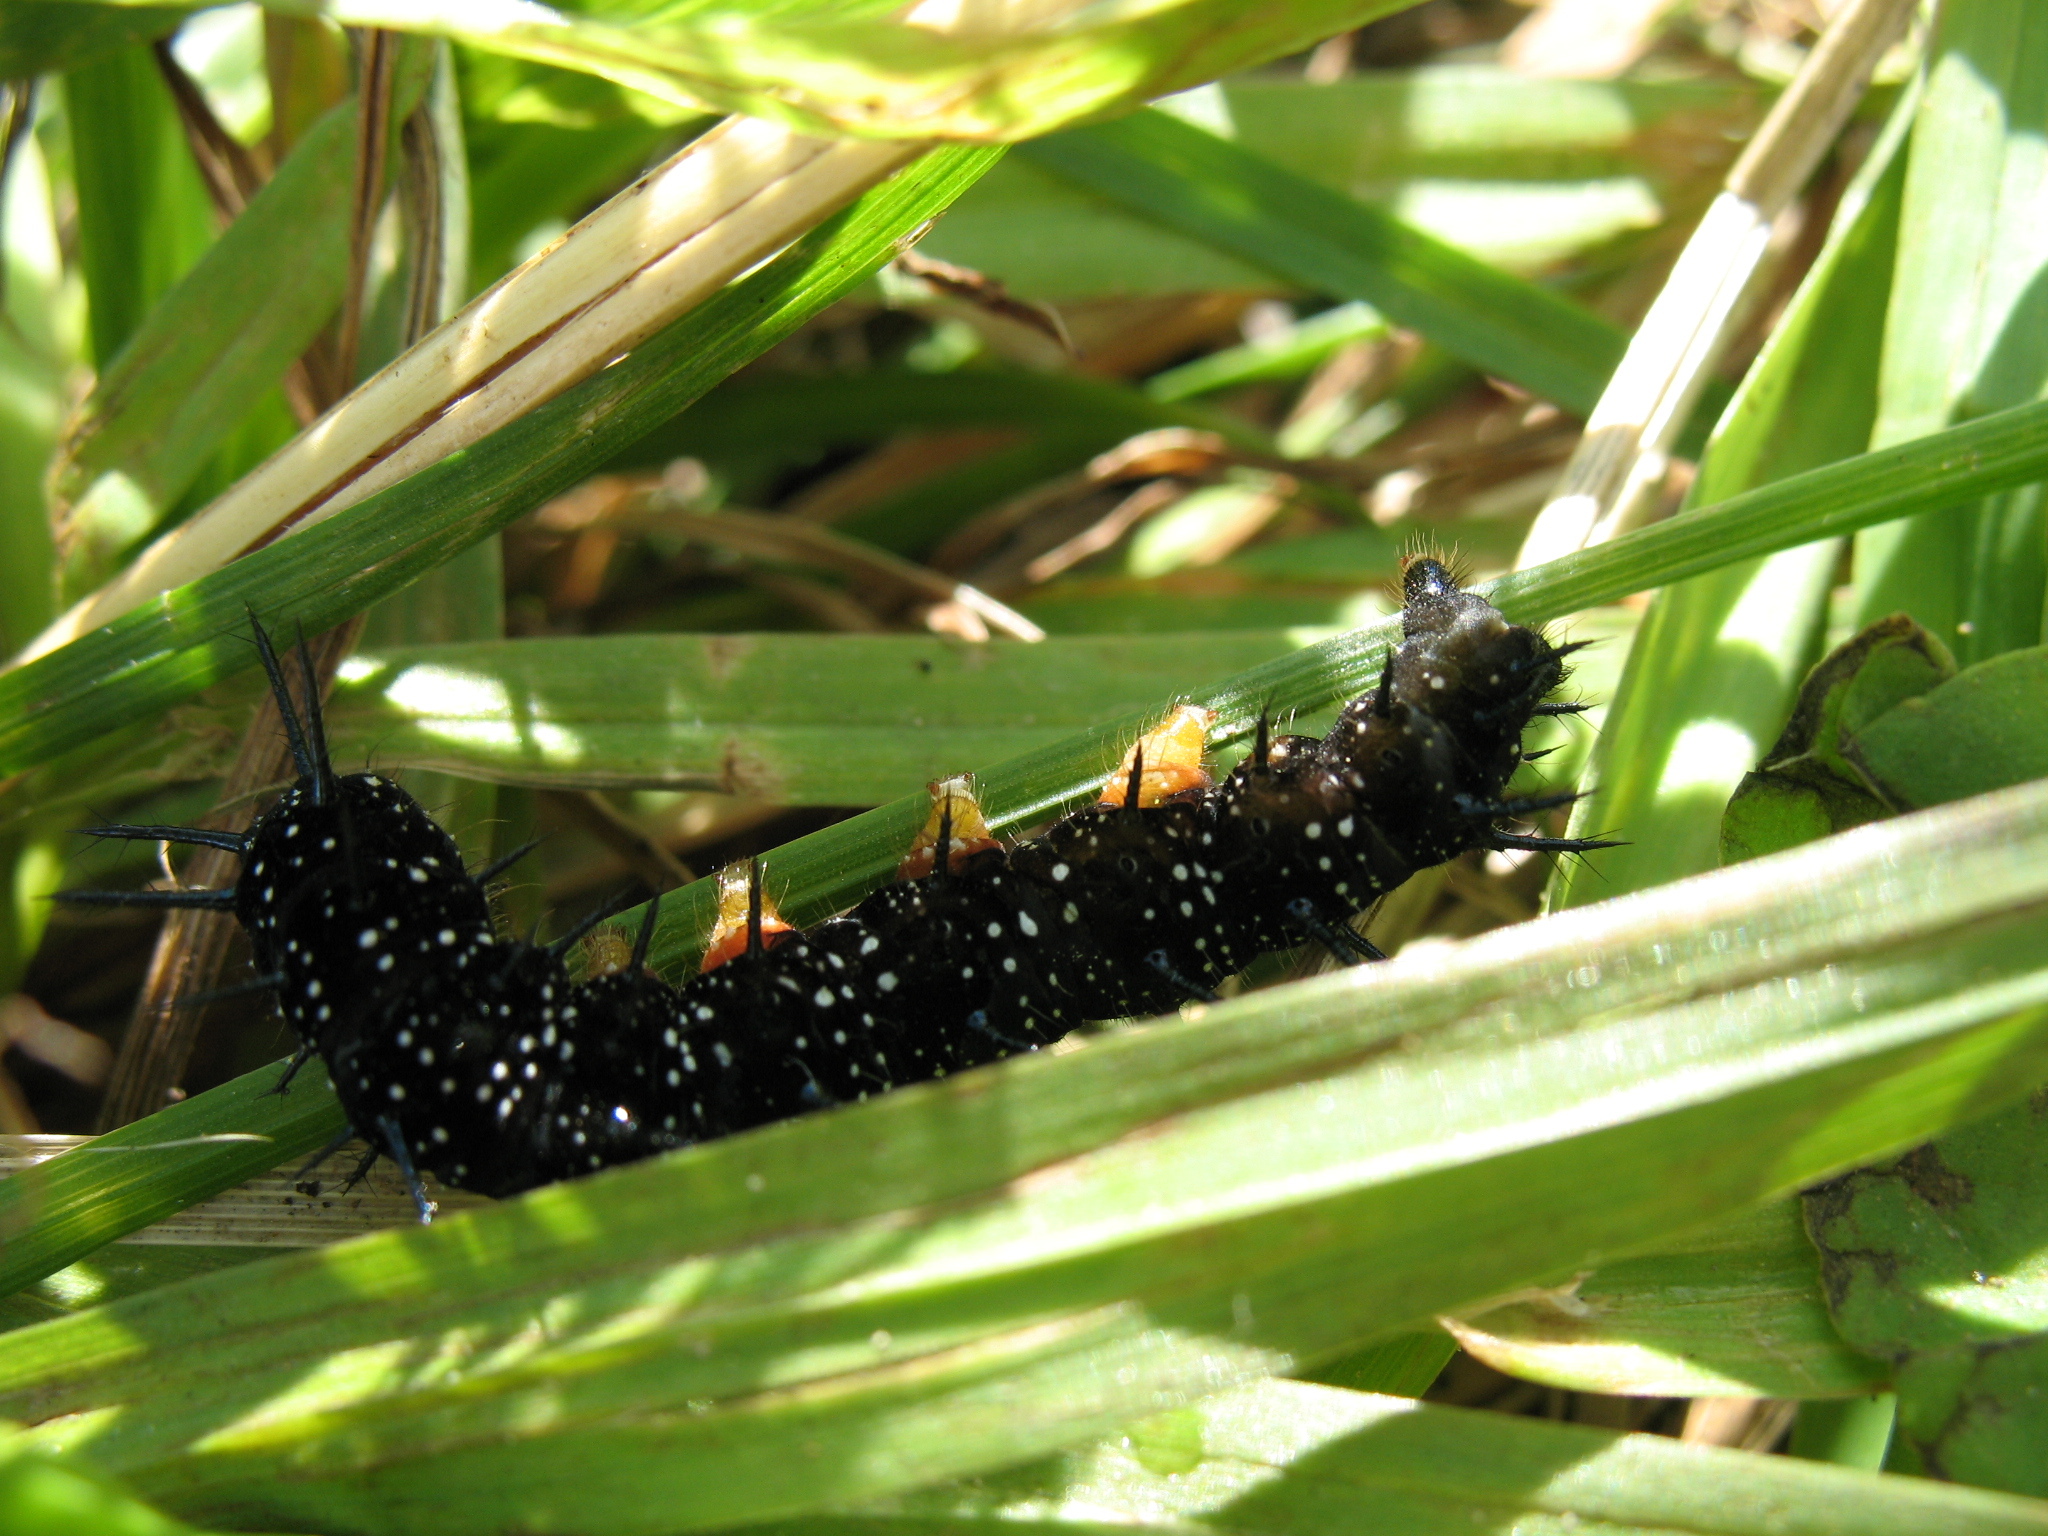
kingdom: Animalia
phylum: Arthropoda
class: Insecta
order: Lepidoptera
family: Nymphalidae
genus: Aglais
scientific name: Aglais io
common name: Peacock
